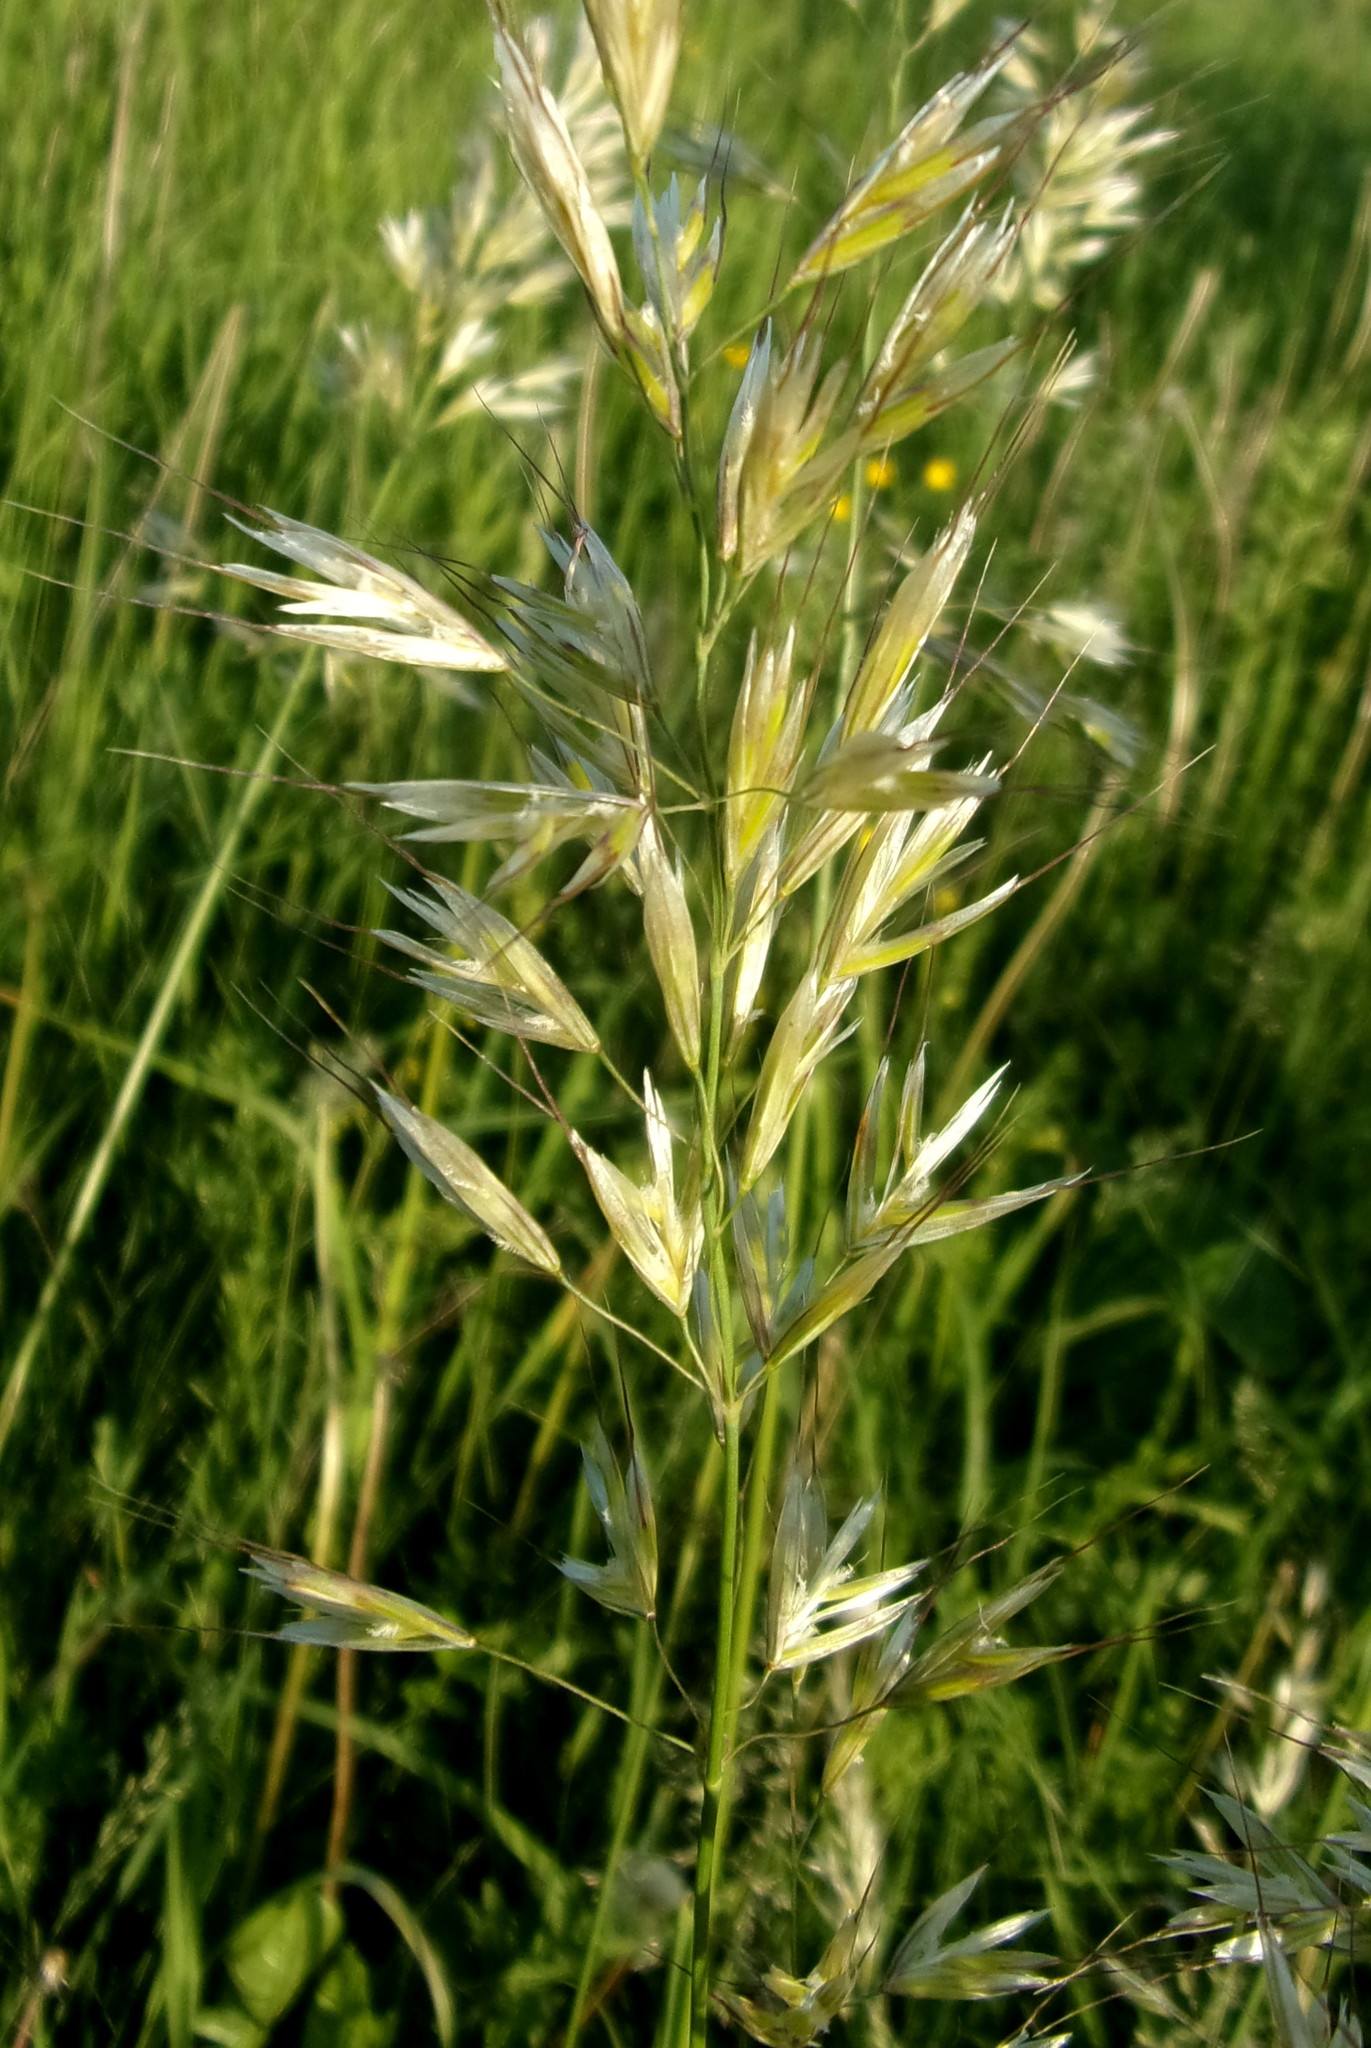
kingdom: Plantae
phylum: Tracheophyta
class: Liliopsida
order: Poales
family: Poaceae
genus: Avenula
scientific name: Avenula pubescens
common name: Downy alpine oatgrass
